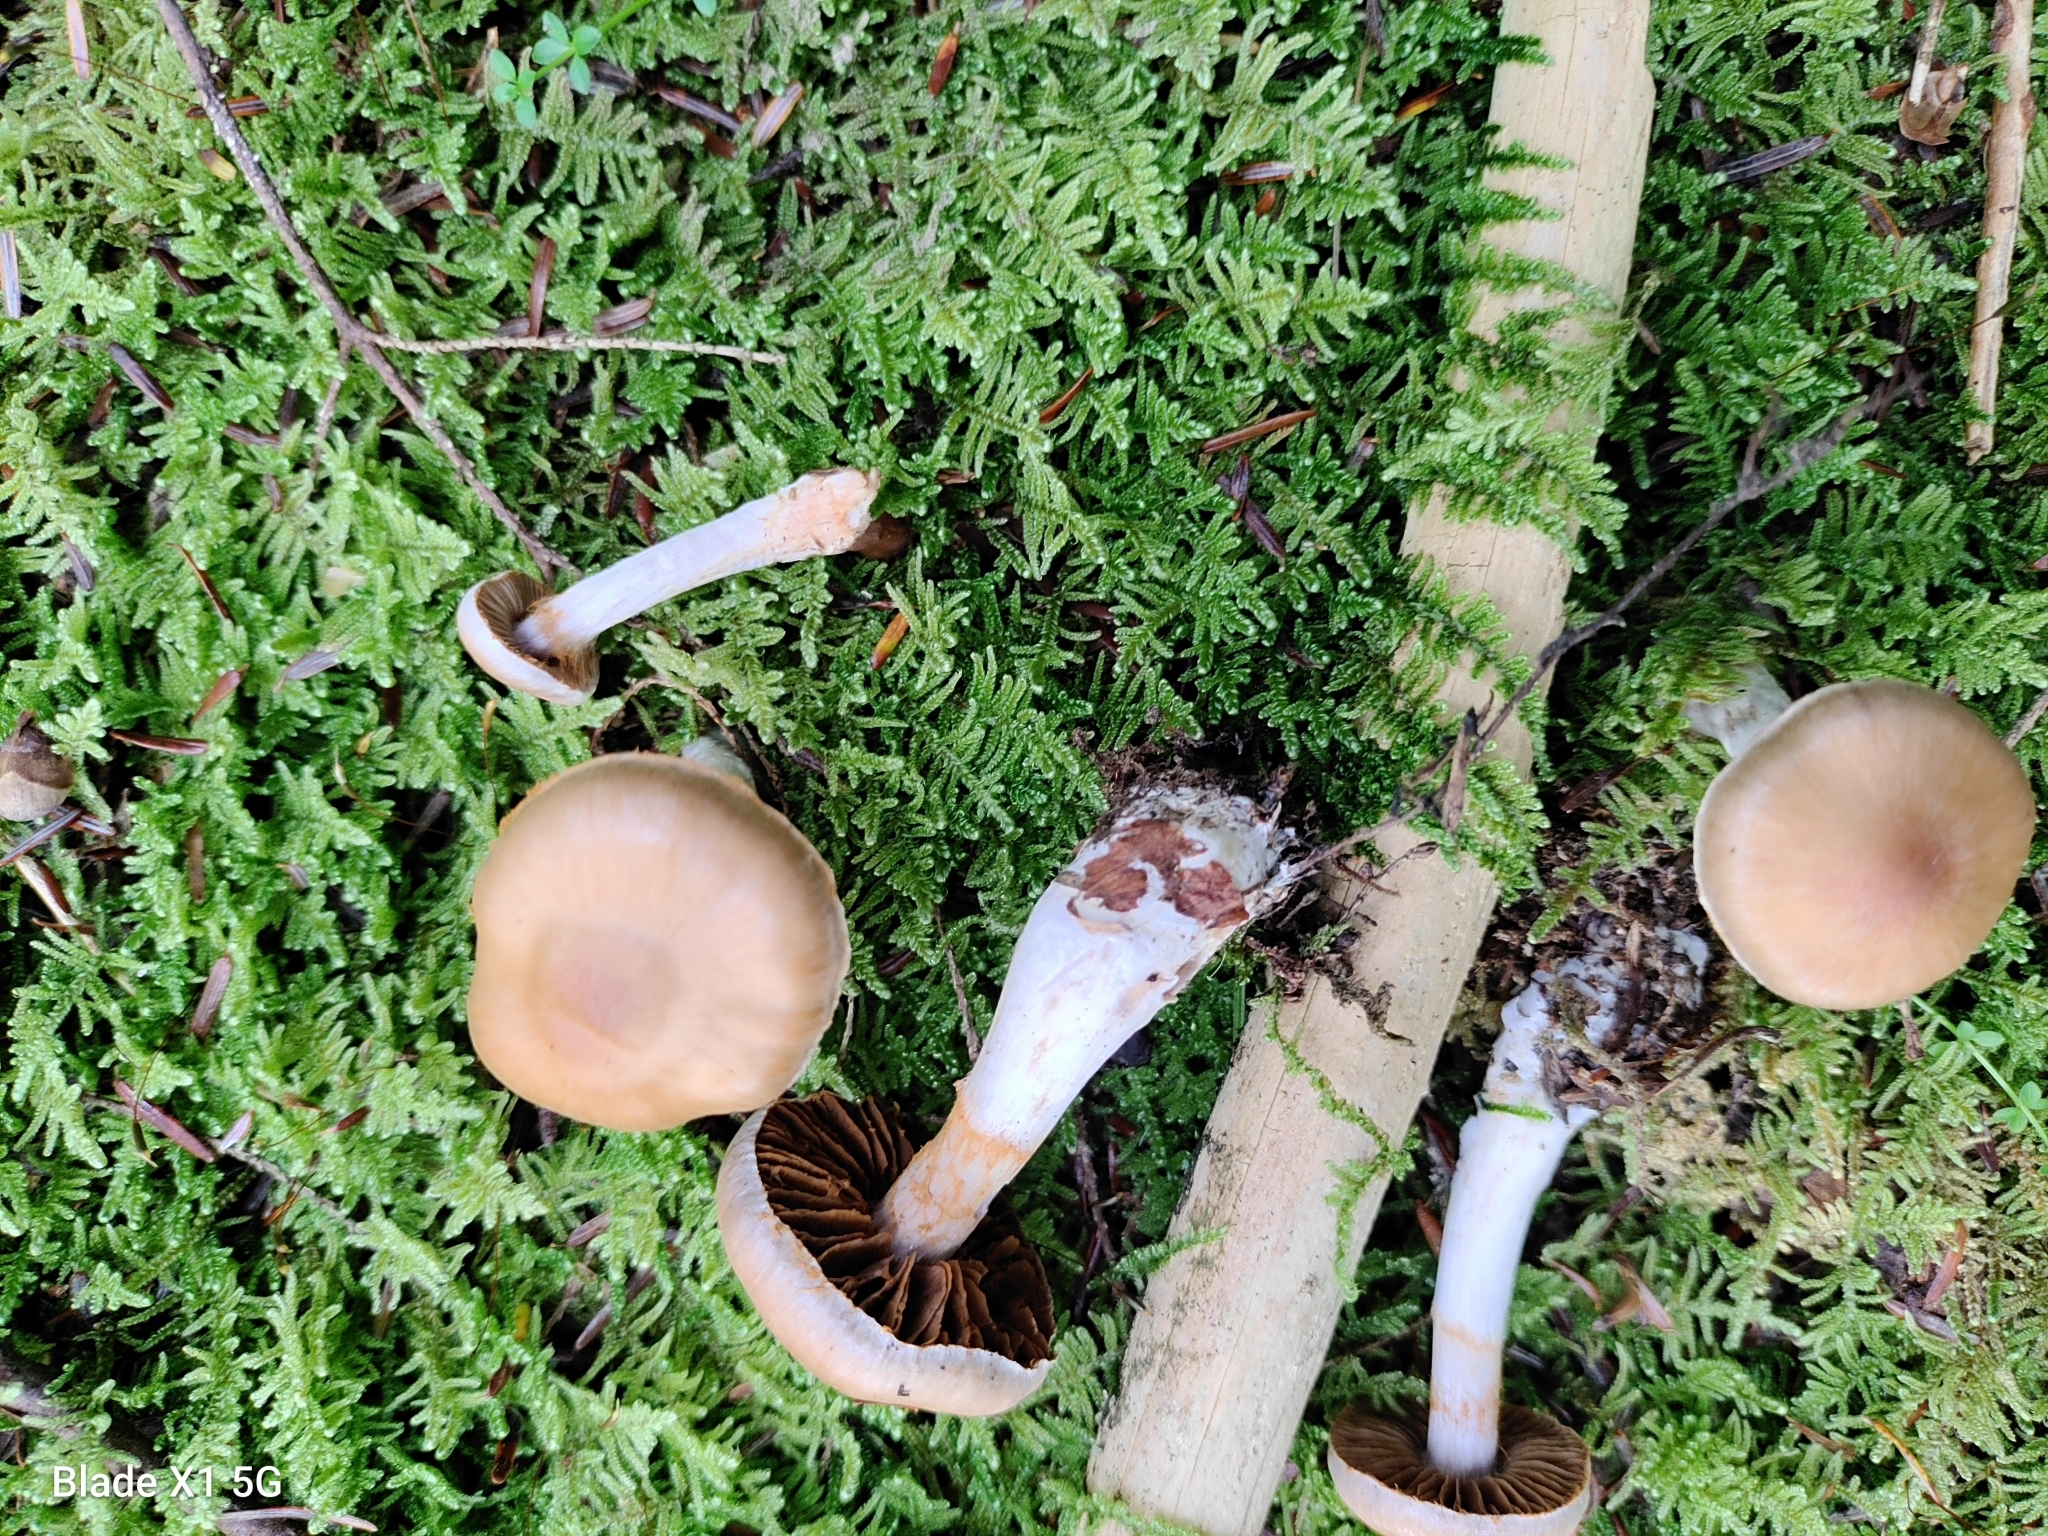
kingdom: Fungi
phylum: Basidiomycota
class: Agaricomycetes
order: Agaricales
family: Cortinariaceae
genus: Cortinarius
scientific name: Cortinarius argenteopileatus
